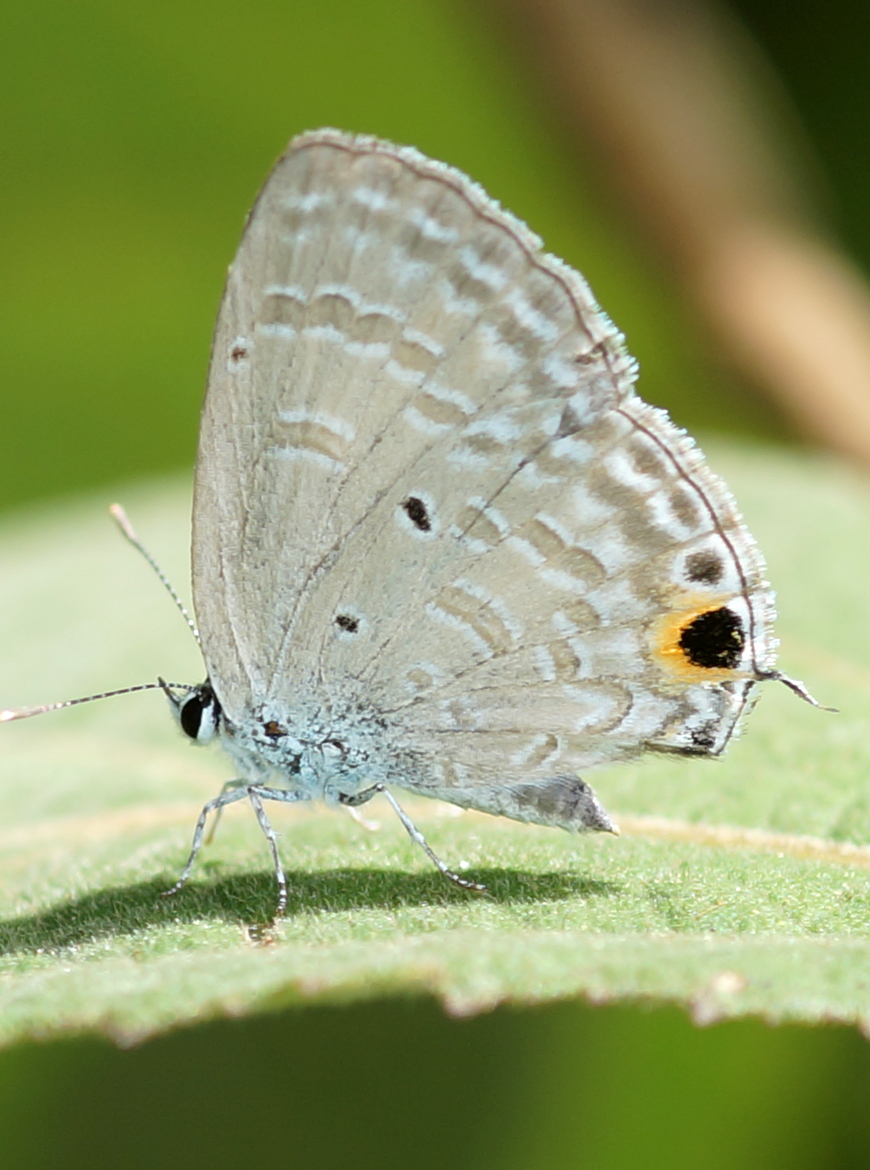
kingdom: Animalia
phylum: Arthropoda
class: Insecta
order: Lepidoptera
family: Lycaenidae
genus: Catochrysops
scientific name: Catochrysops panormus
